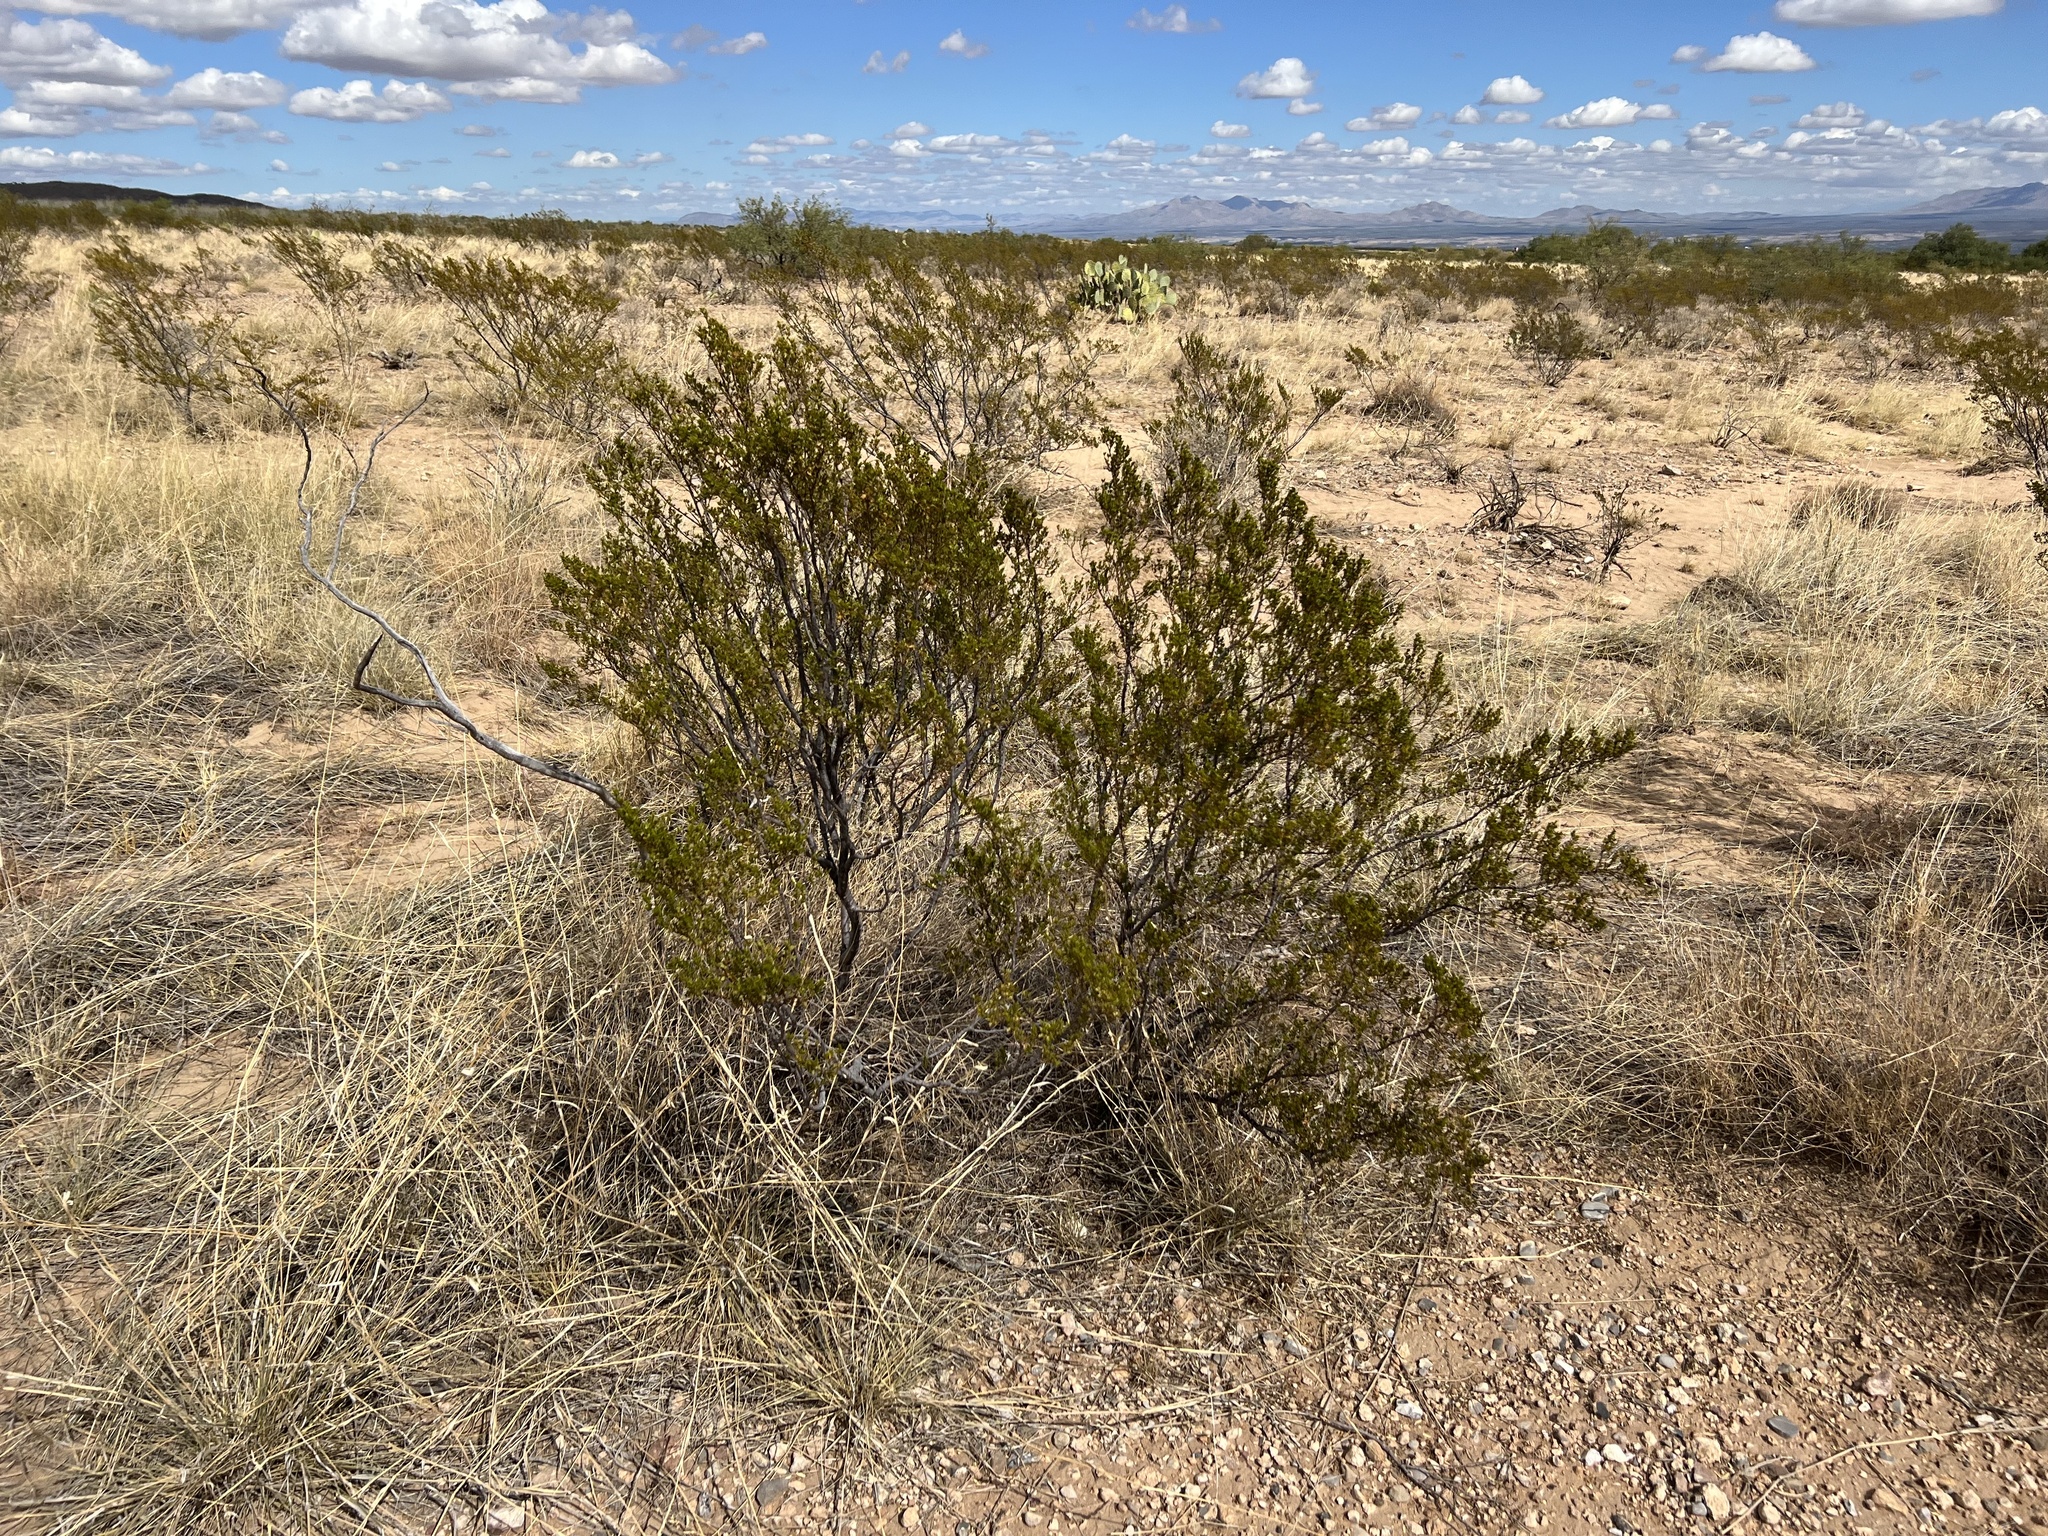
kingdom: Plantae
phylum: Tracheophyta
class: Magnoliopsida
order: Zygophyllales
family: Zygophyllaceae
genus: Larrea
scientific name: Larrea tridentata
